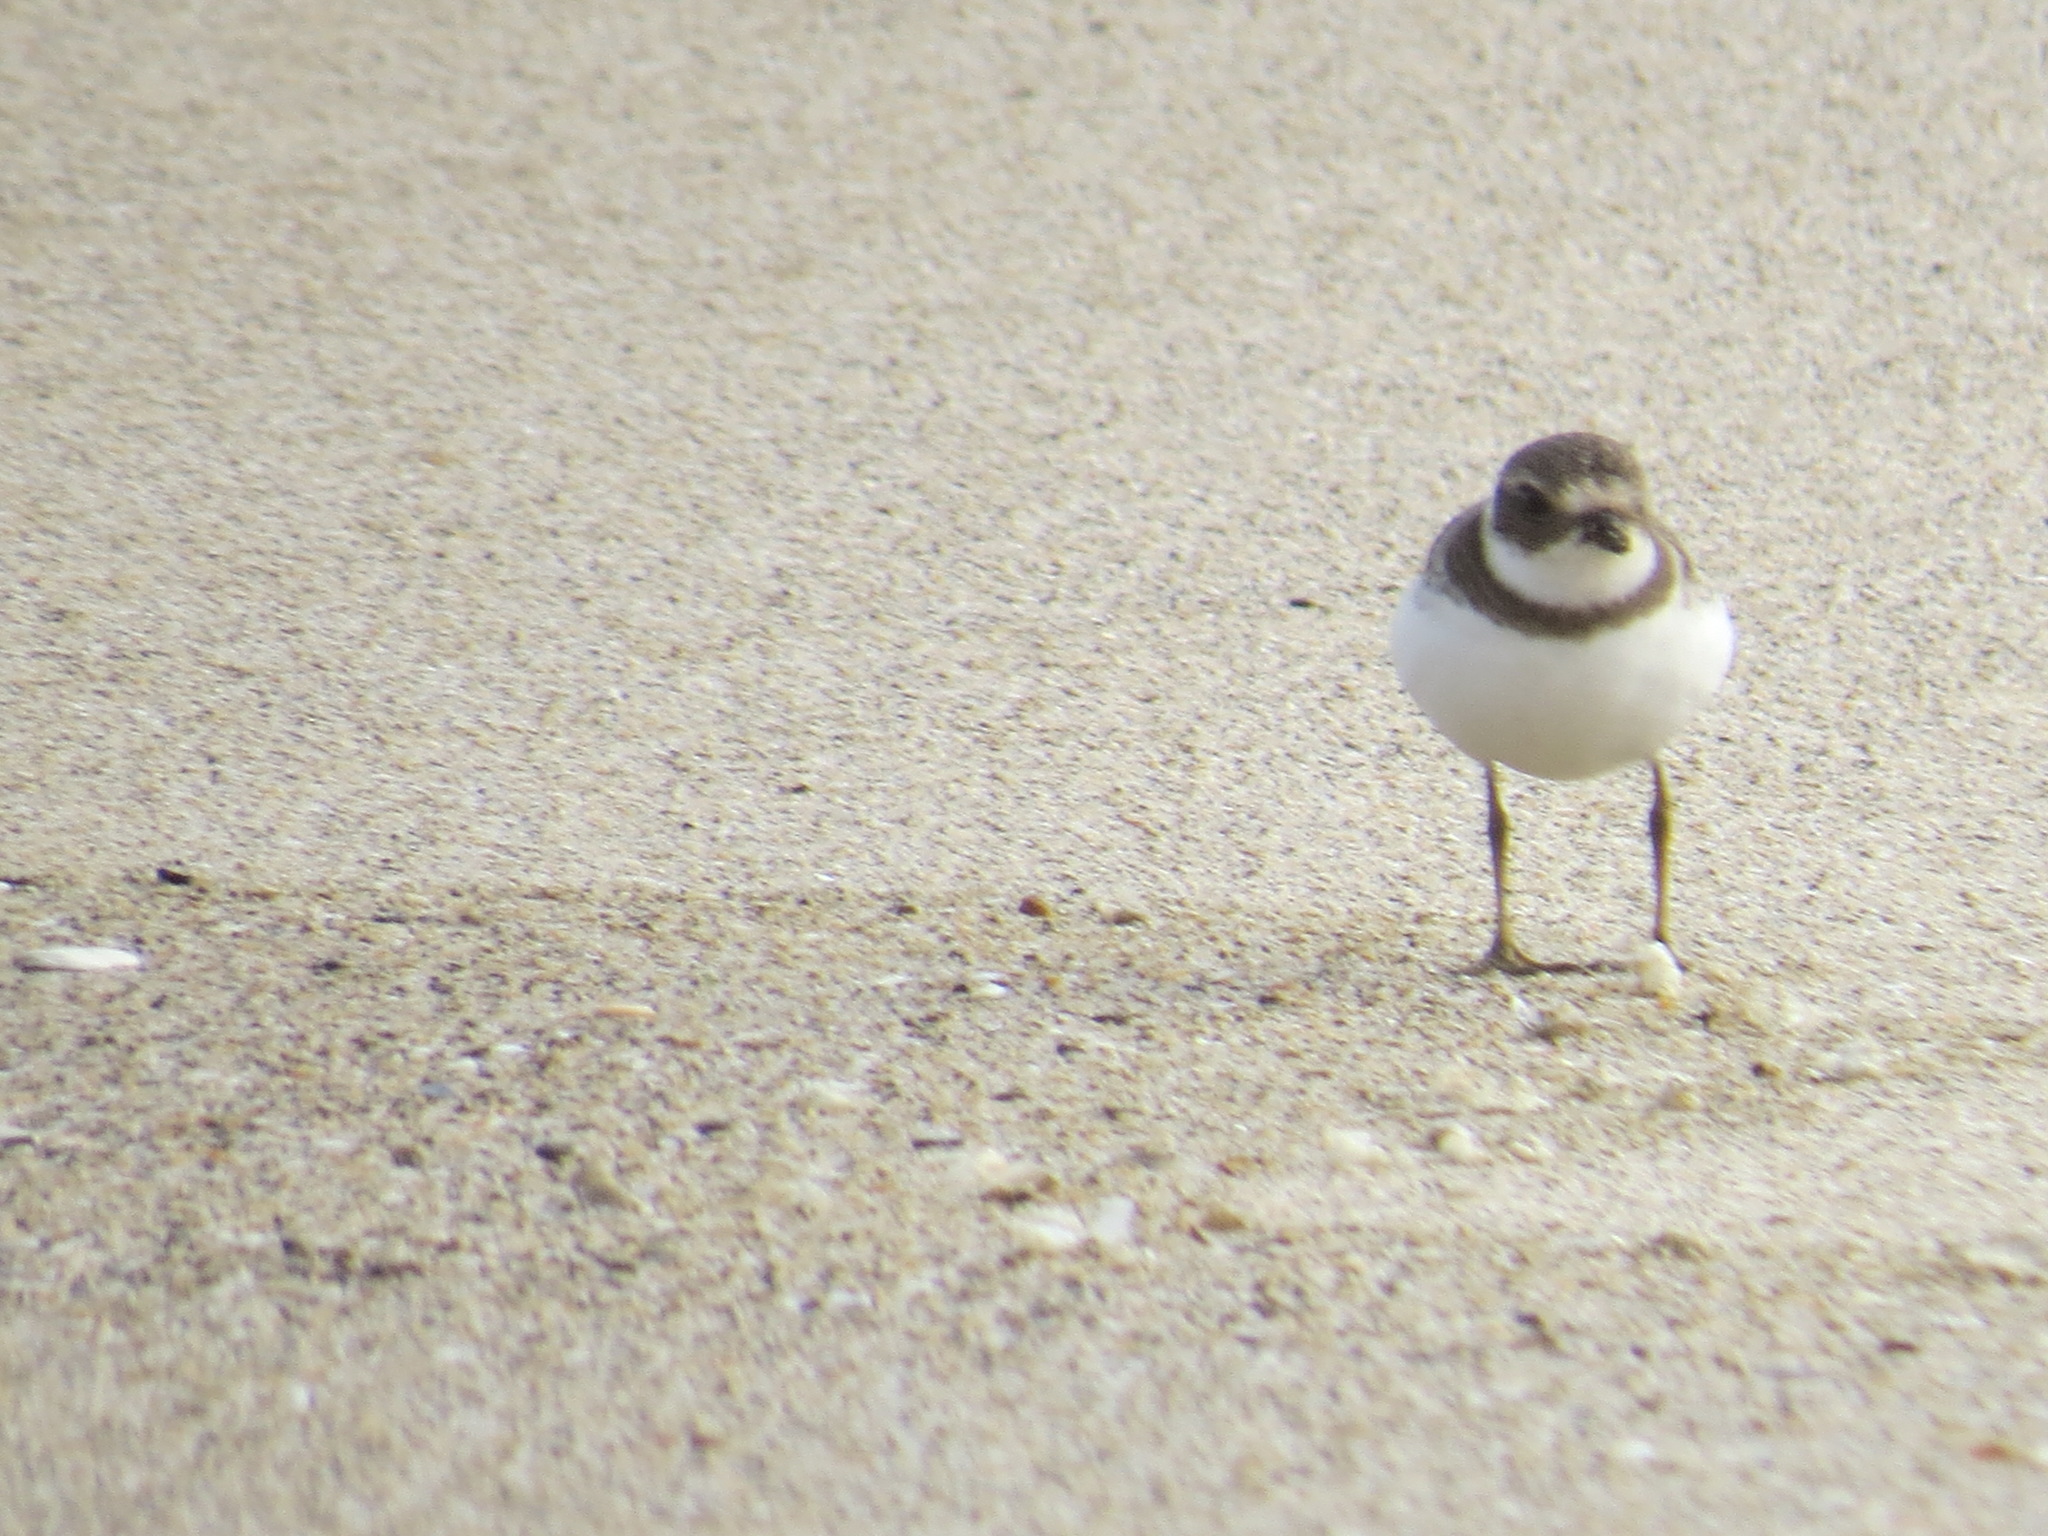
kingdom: Animalia
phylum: Chordata
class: Aves
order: Charadriiformes
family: Charadriidae
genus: Charadrius
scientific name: Charadrius semipalmatus
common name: Semipalmated plover
